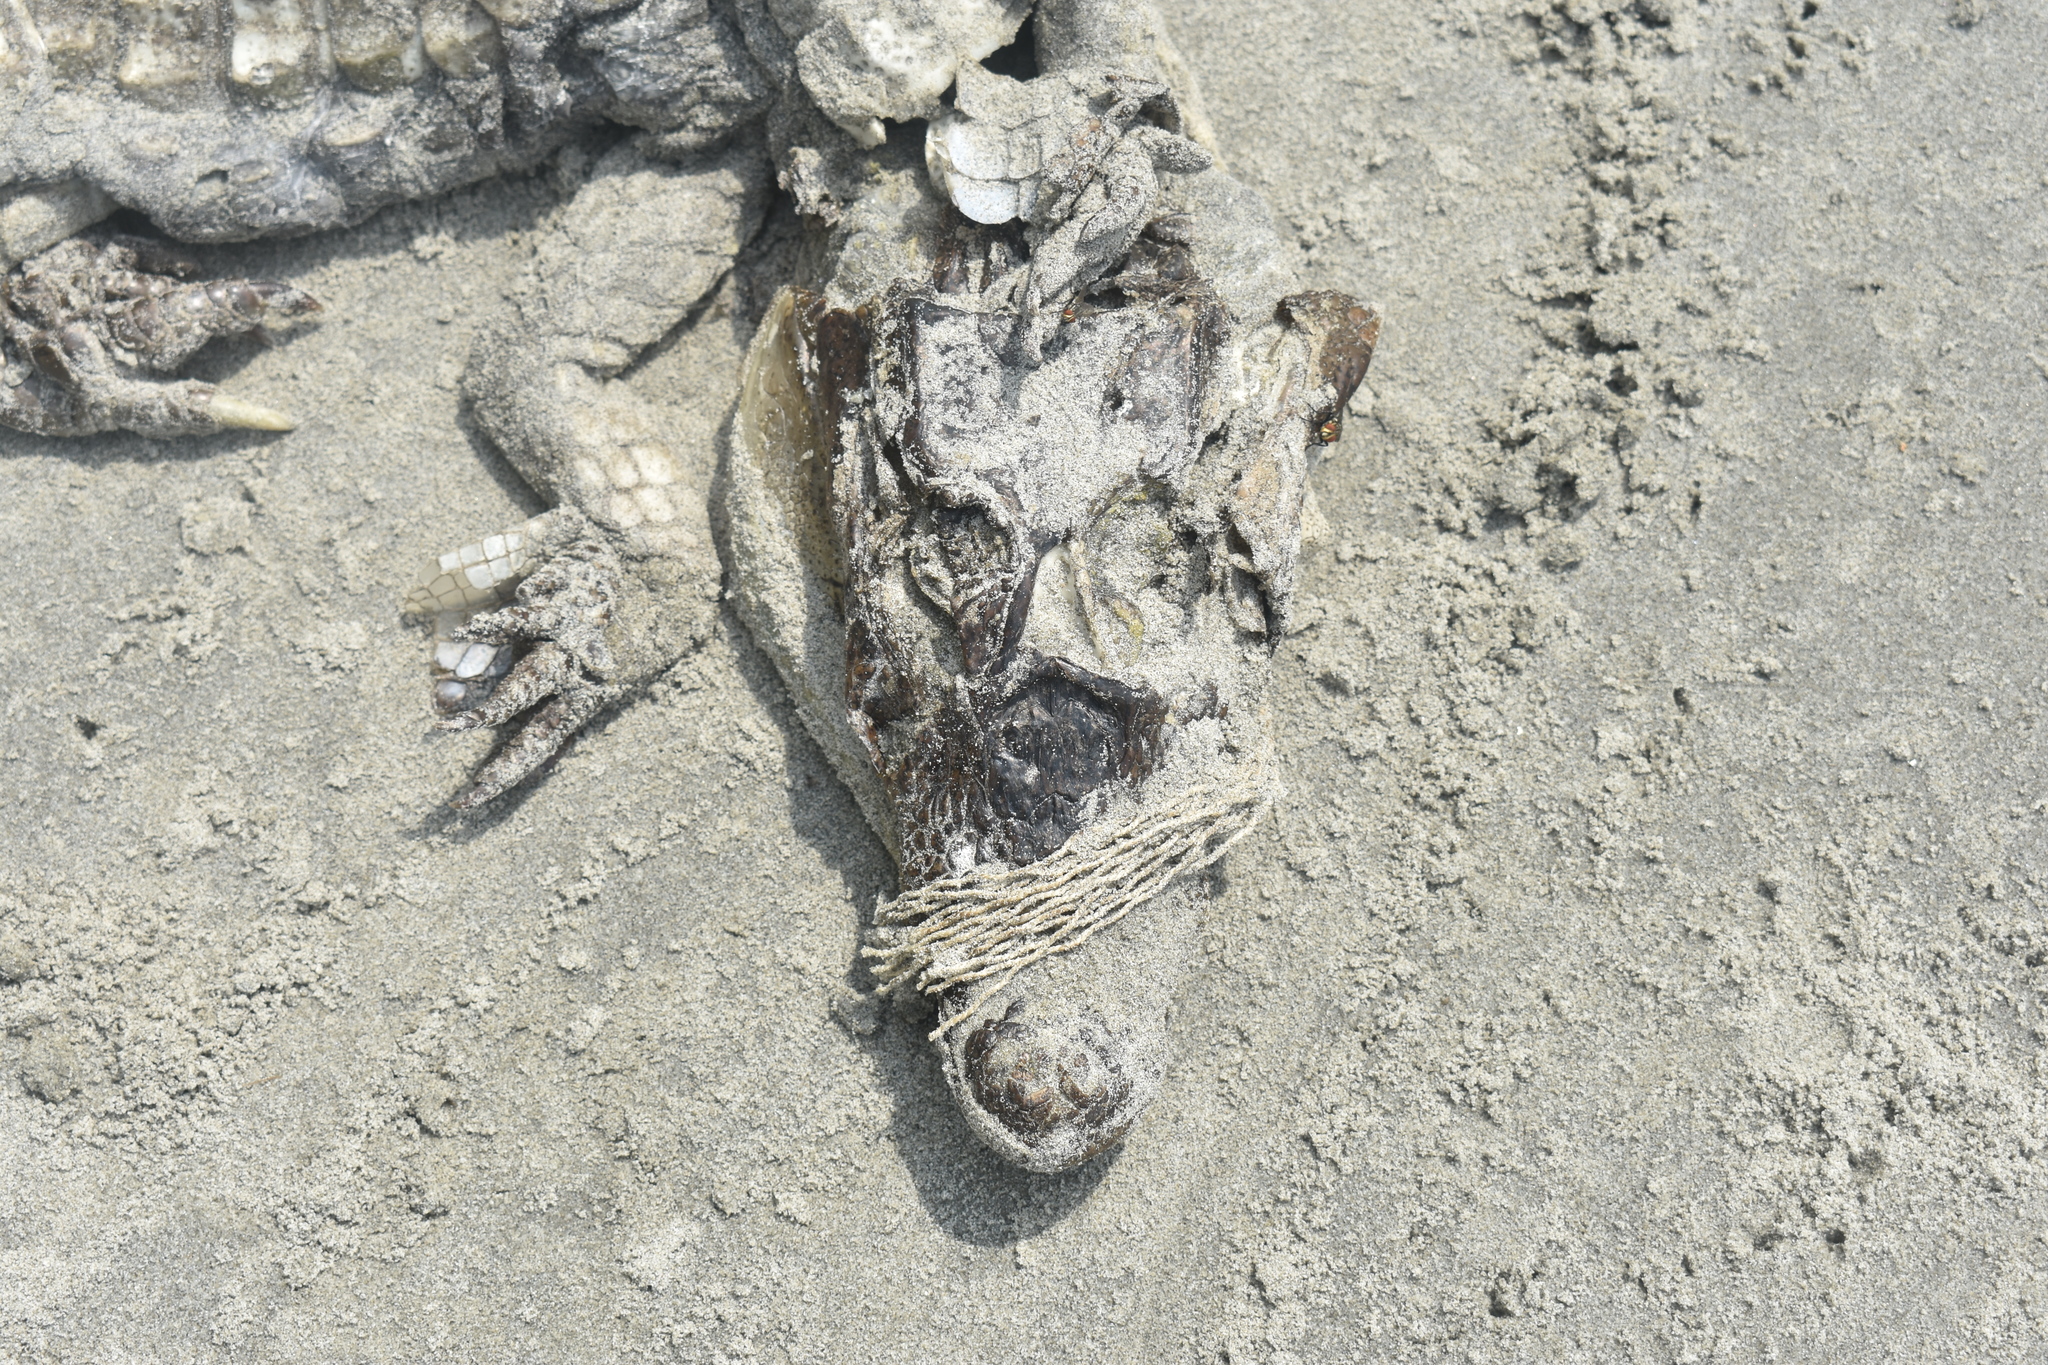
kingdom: Animalia
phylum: Chordata
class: Crocodylia
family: Alligatoridae
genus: Caiman
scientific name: Caiman crocodilus
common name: Common caiman
